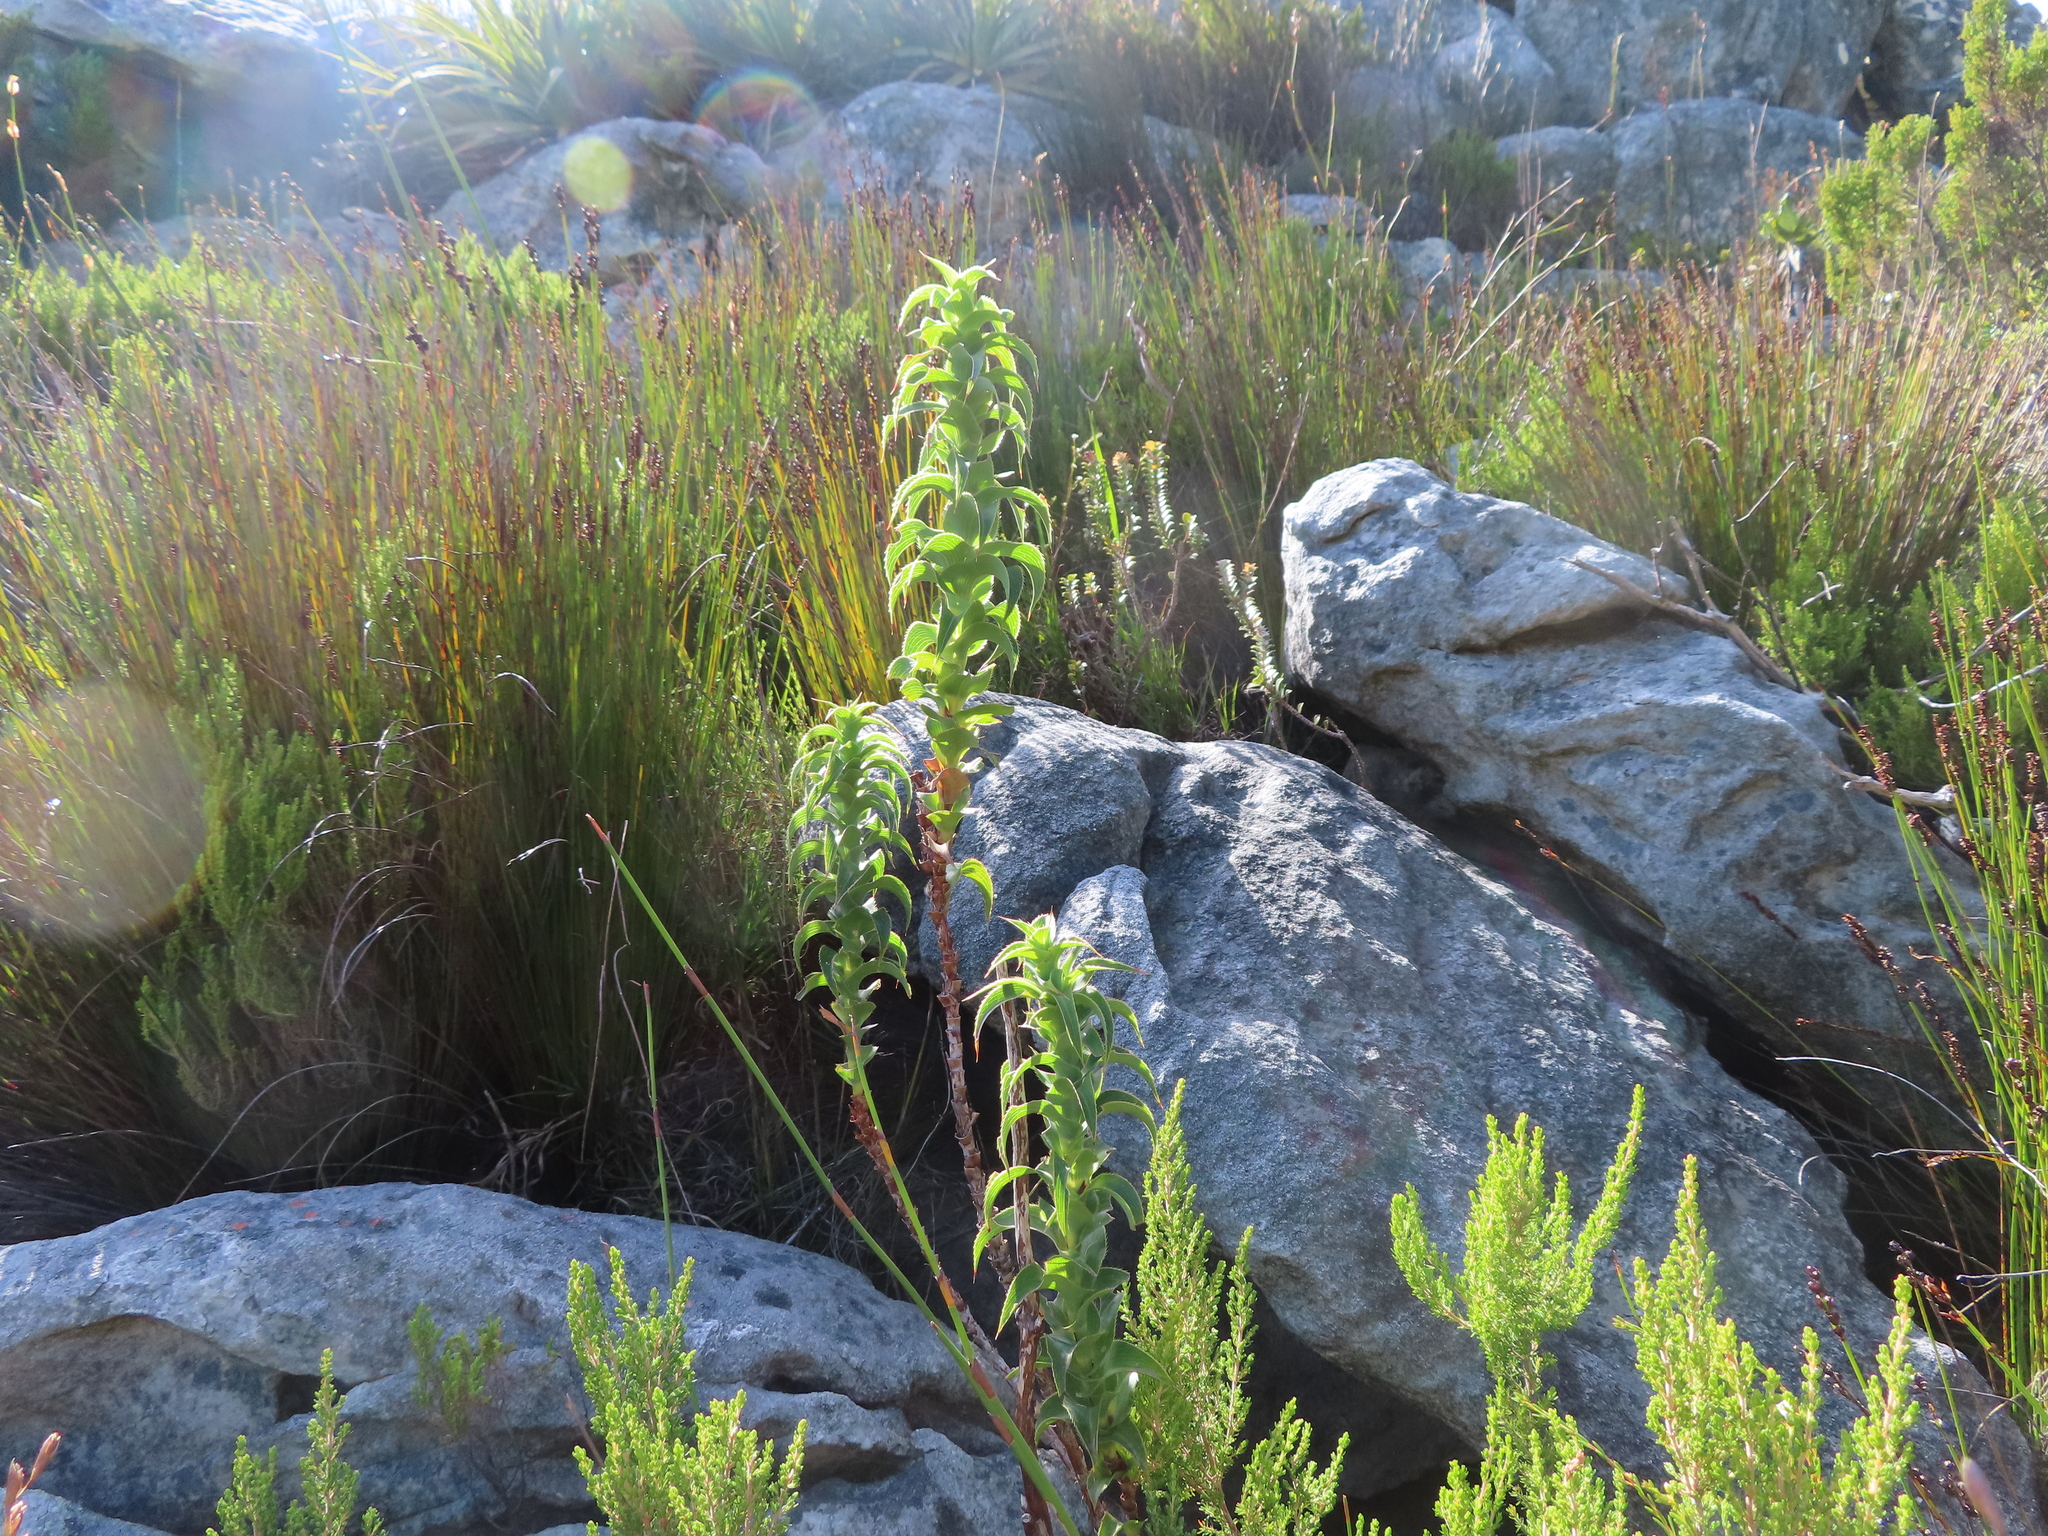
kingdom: Plantae
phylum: Tracheophyta
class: Magnoliopsida
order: Rosales
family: Rosaceae
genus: Cliffortia
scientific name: Cliffortia recurvata
